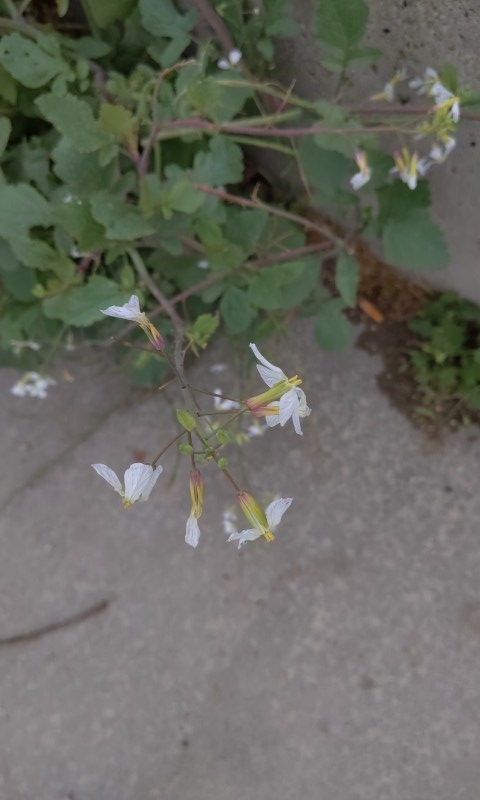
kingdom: Plantae
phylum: Tracheophyta
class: Magnoliopsida
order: Brassicales
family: Brassicaceae
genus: Raphanus
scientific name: Raphanus sativus
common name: Cultivated radish
